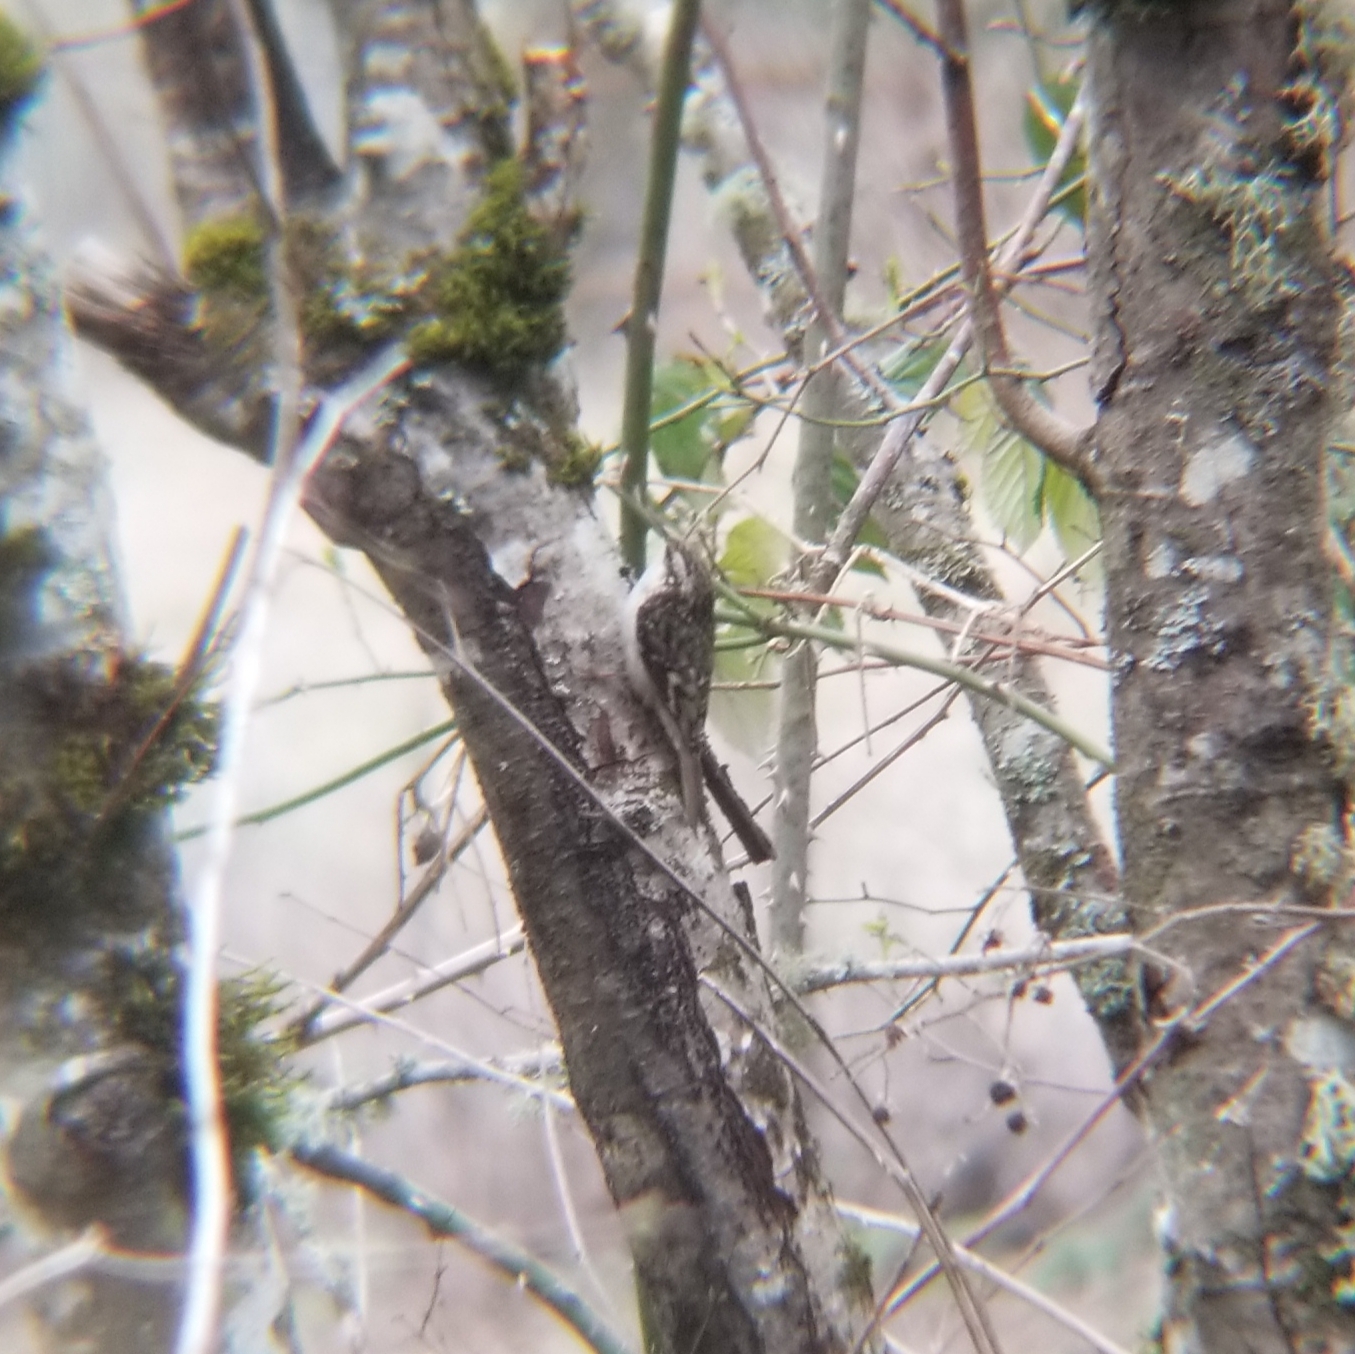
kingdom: Animalia
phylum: Chordata
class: Aves
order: Passeriformes
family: Certhiidae
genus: Certhia
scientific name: Certhia americana
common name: Brown creeper
